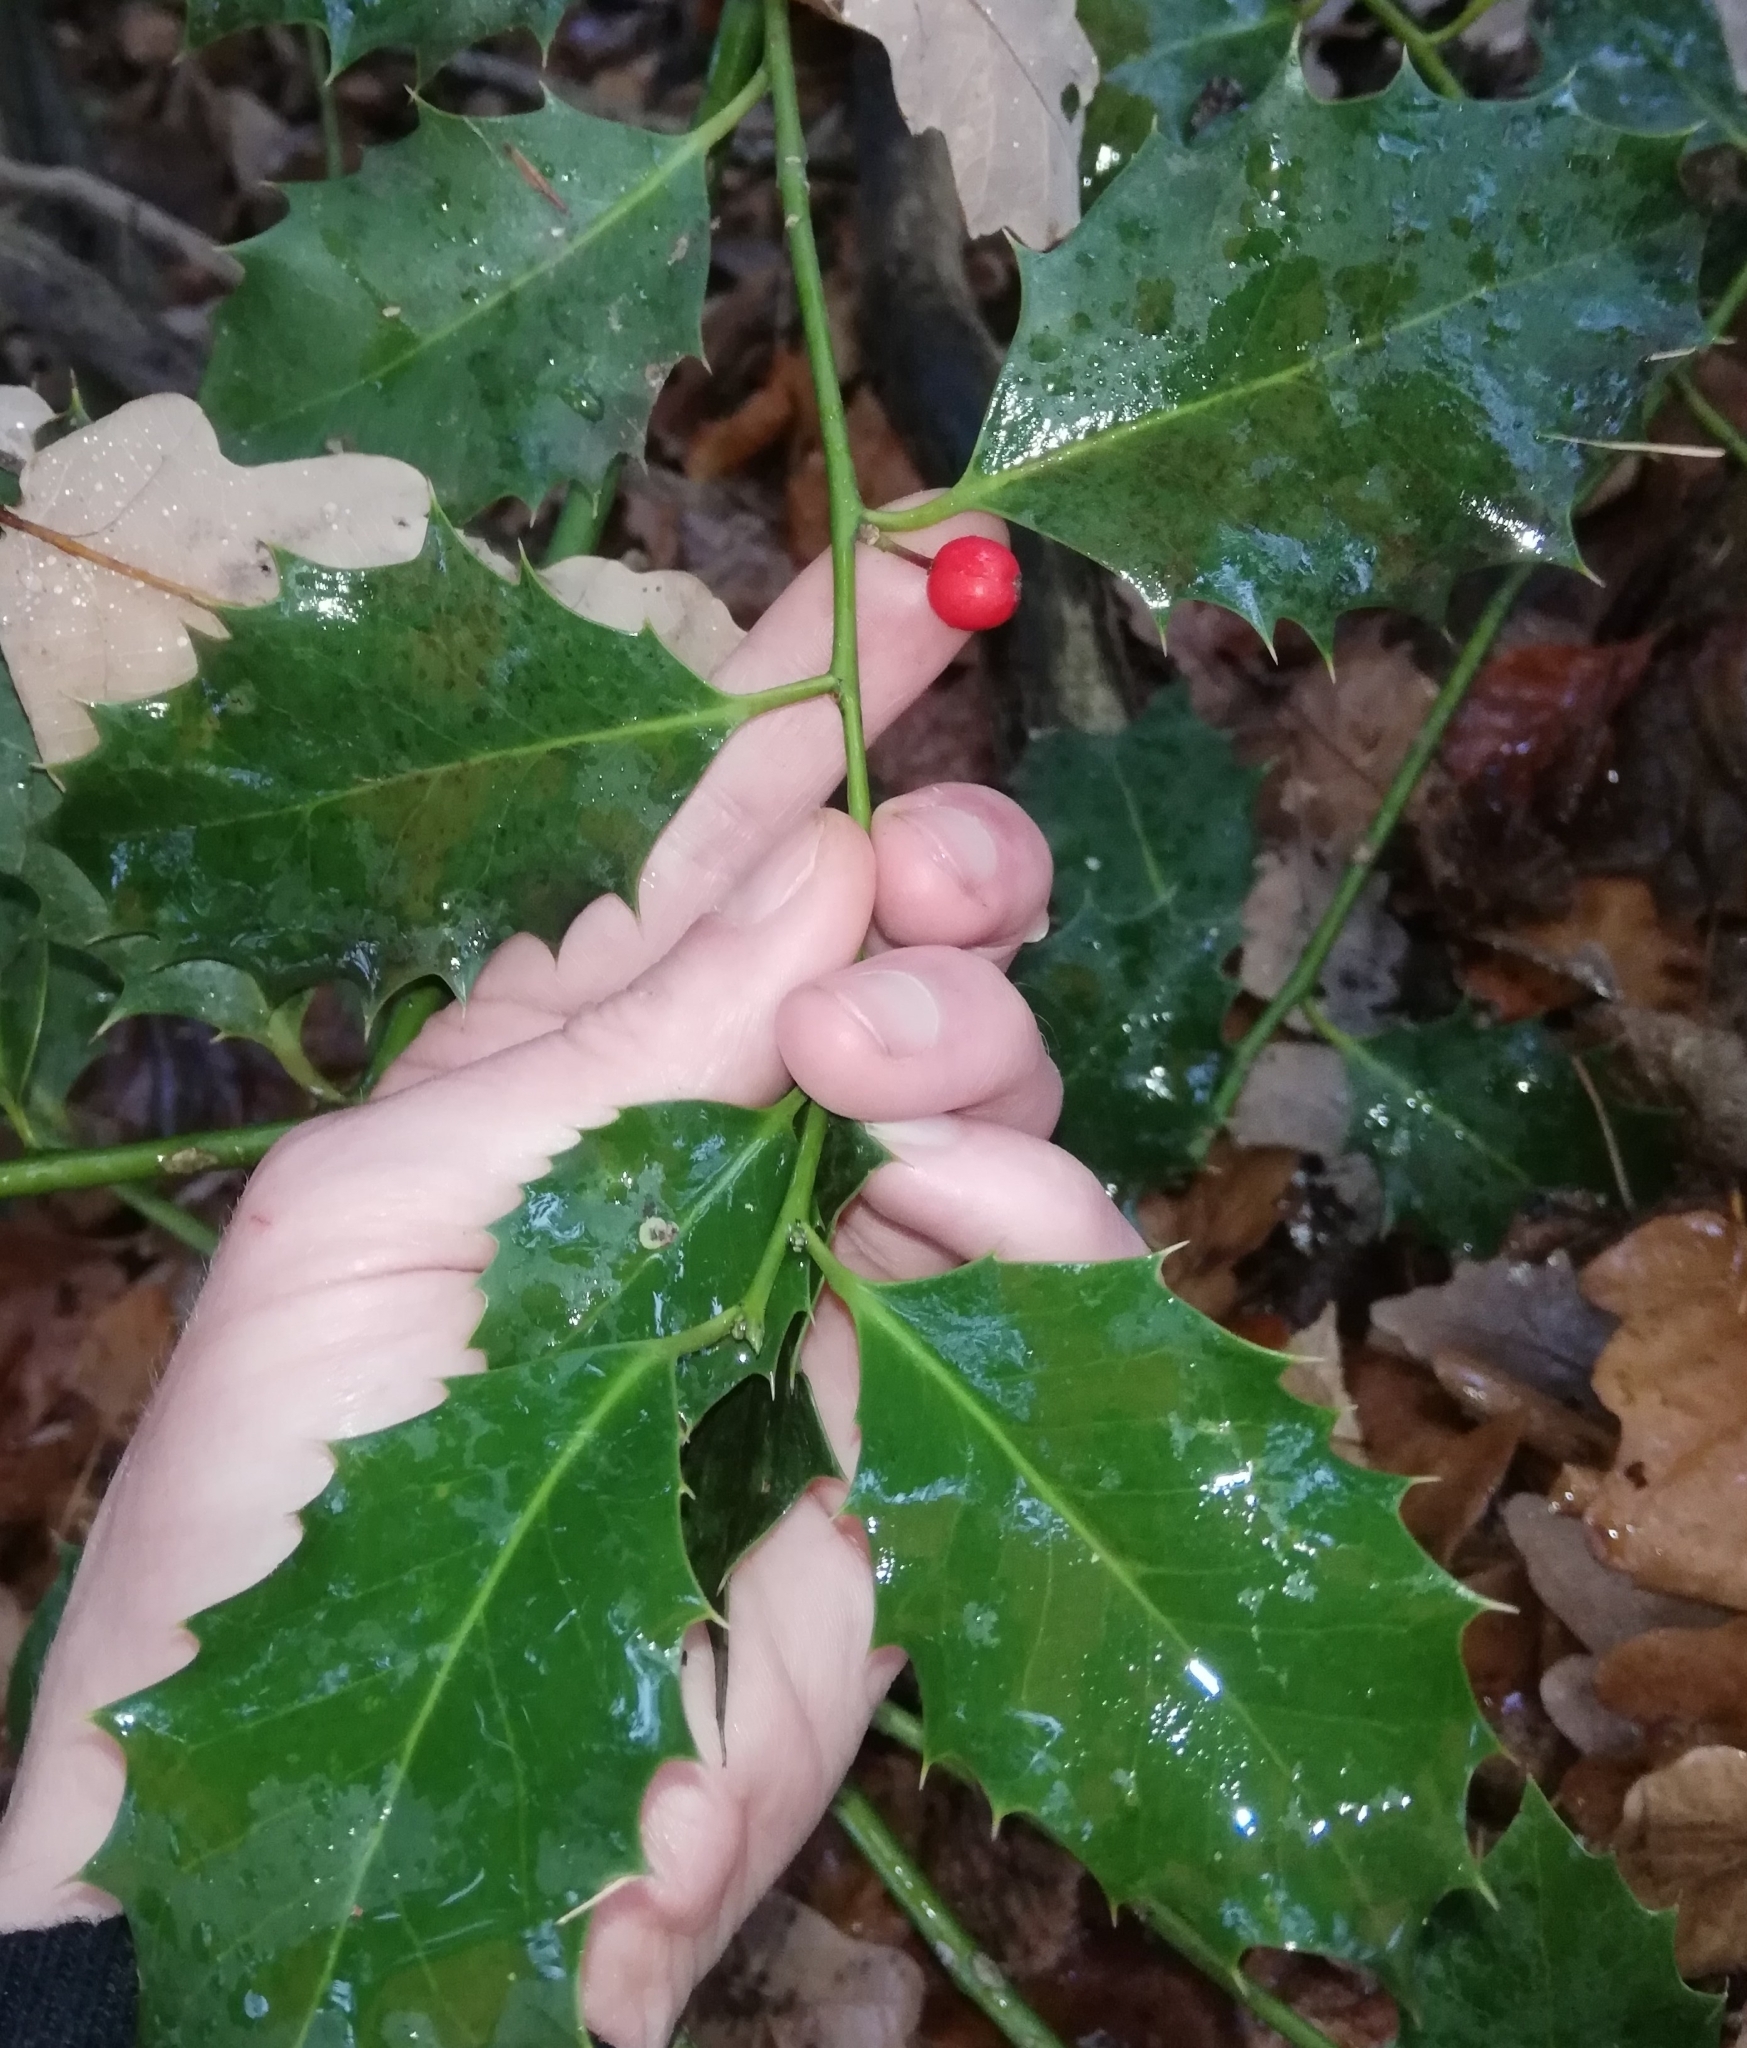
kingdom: Plantae
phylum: Tracheophyta
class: Magnoliopsida
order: Aquifoliales
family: Aquifoliaceae
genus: Ilex
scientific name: Ilex aquifolium
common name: English holly
